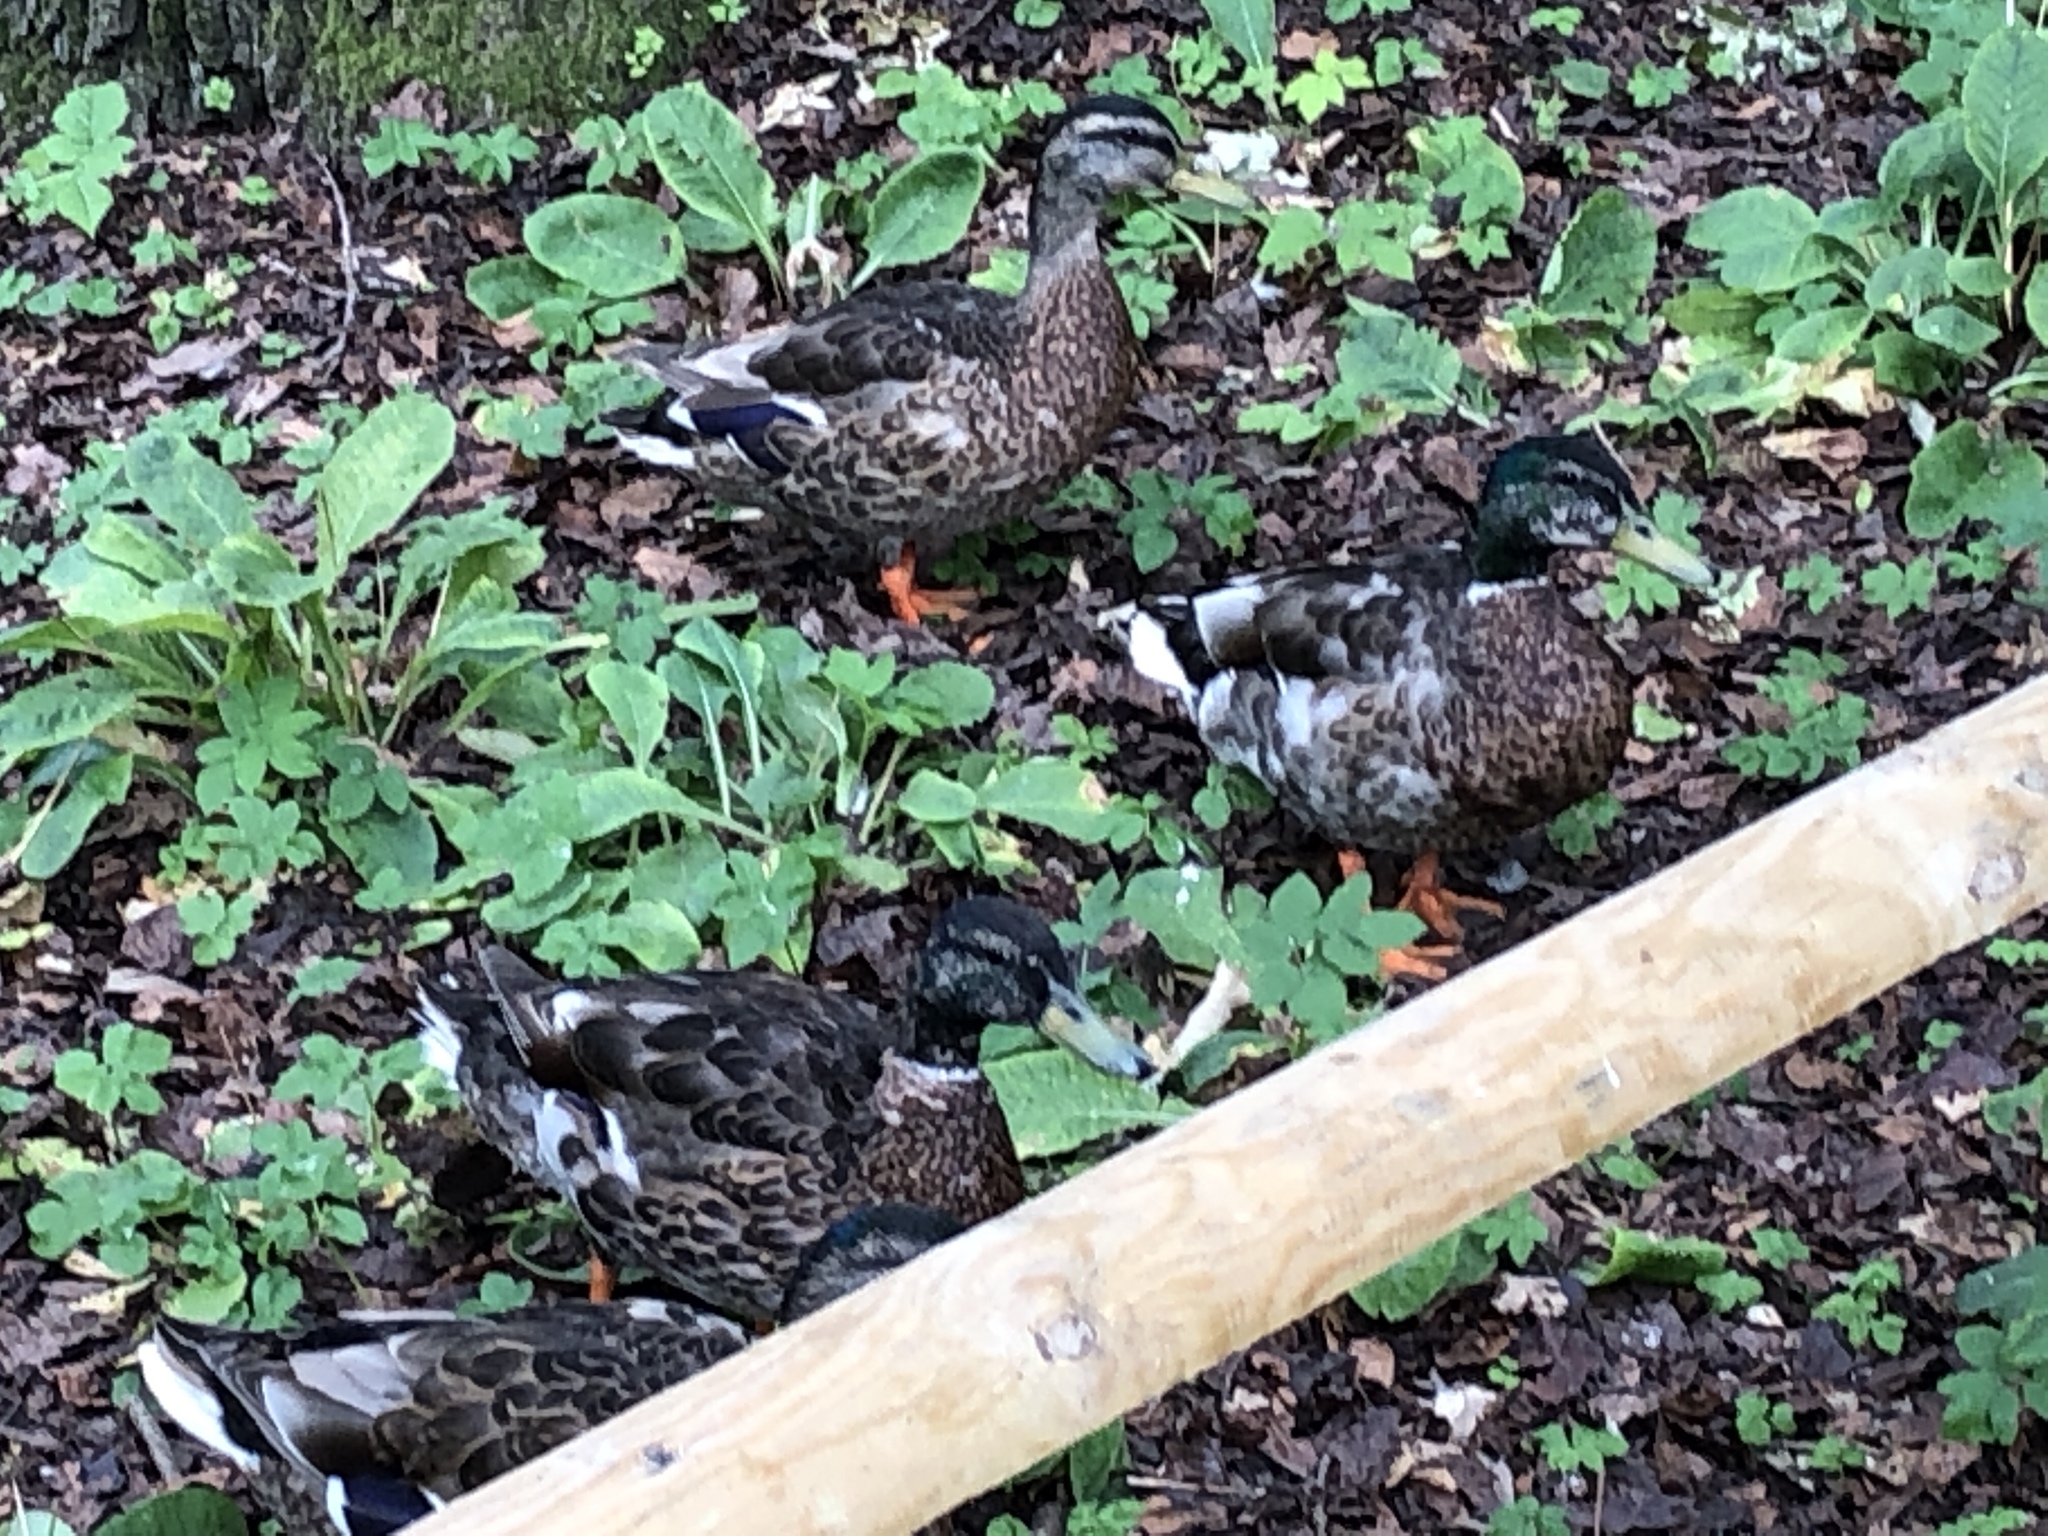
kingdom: Animalia
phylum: Chordata
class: Aves
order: Anseriformes
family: Anatidae
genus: Anas
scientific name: Anas platyrhynchos
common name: Mallard
